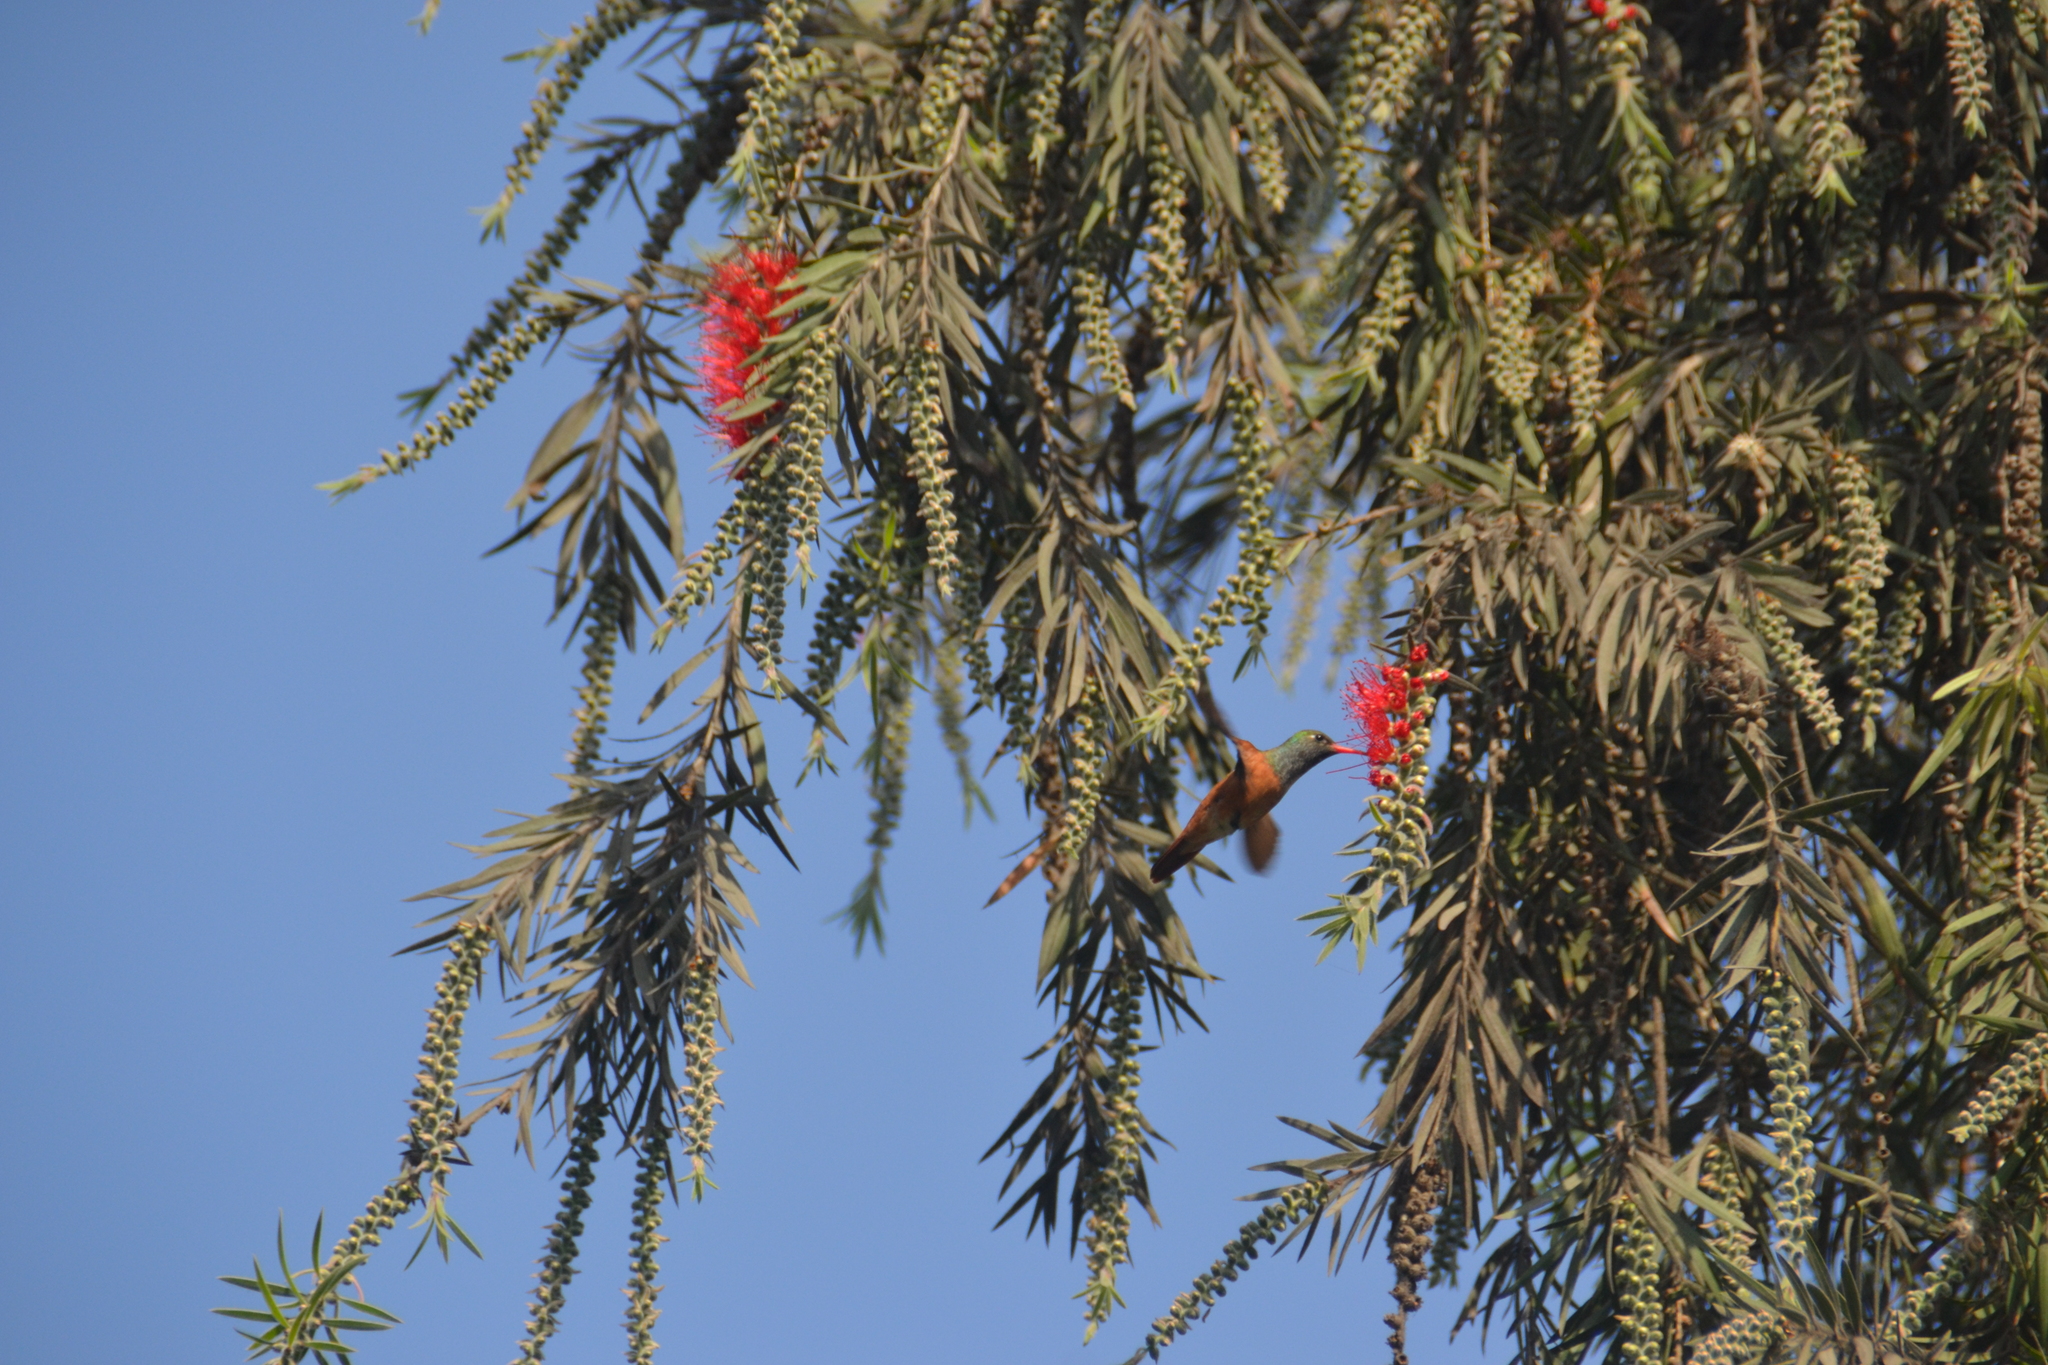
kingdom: Animalia
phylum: Chordata
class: Aves
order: Apodiformes
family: Trochilidae
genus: Amazilis
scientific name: Amazilis amazilia
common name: Amazilia hummingbird
